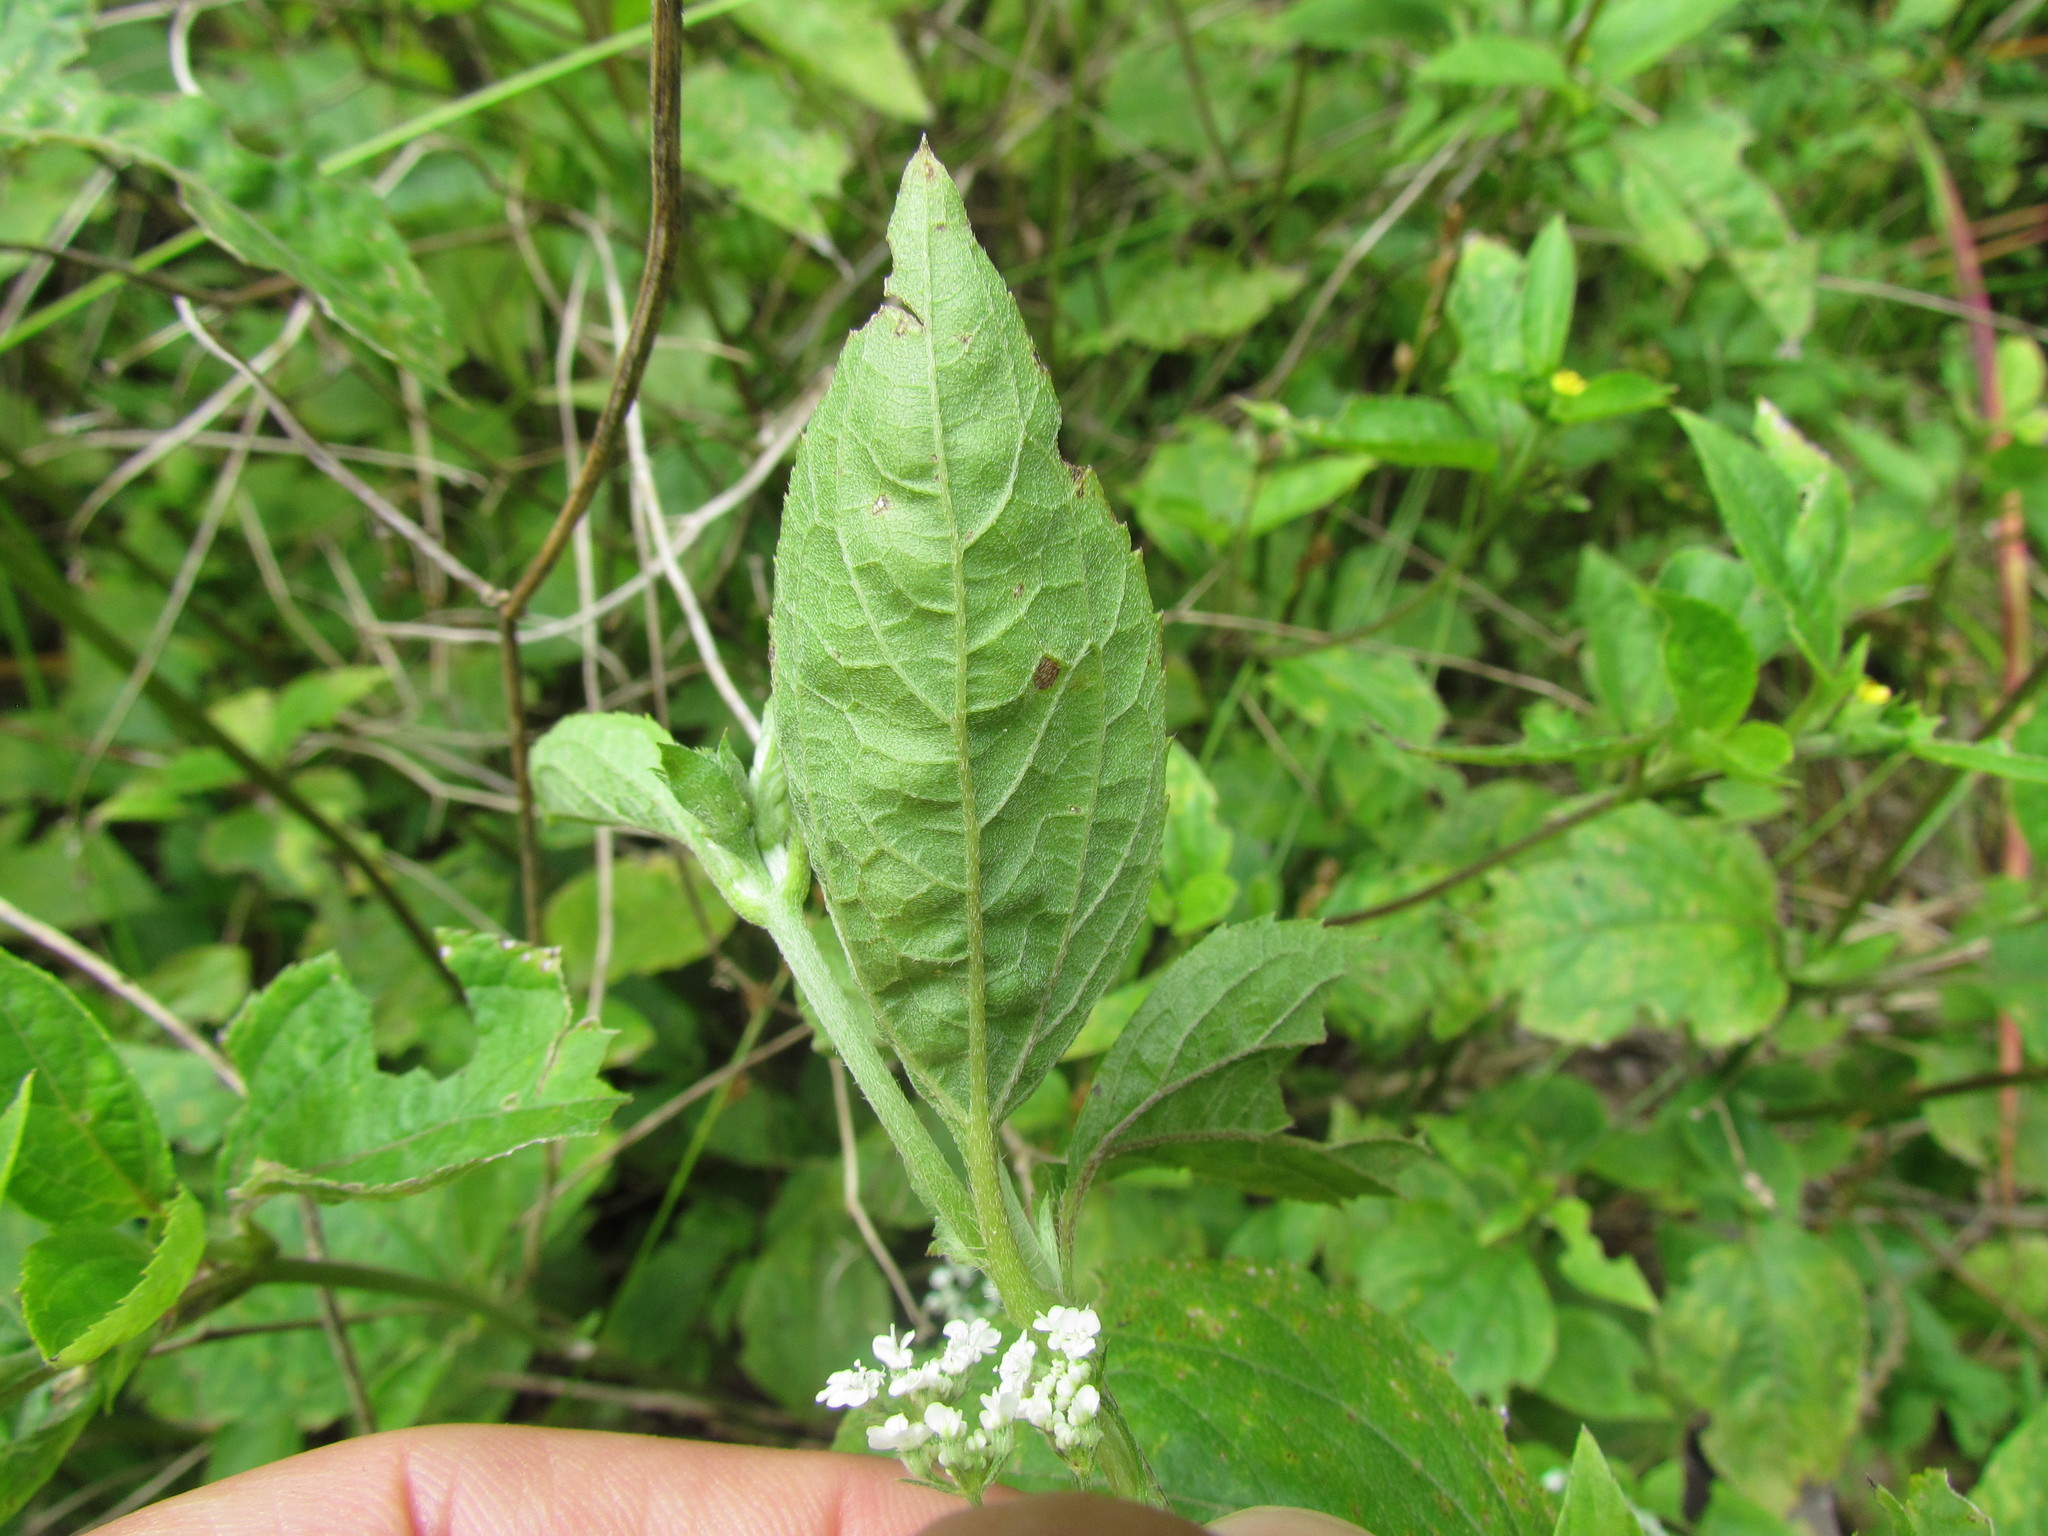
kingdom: Plantae
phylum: Tracheophyta
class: Magnoliopsida
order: Asterales
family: Asteraceae
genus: Calyptocarpus
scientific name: Calyptocarpus brasiliensis
